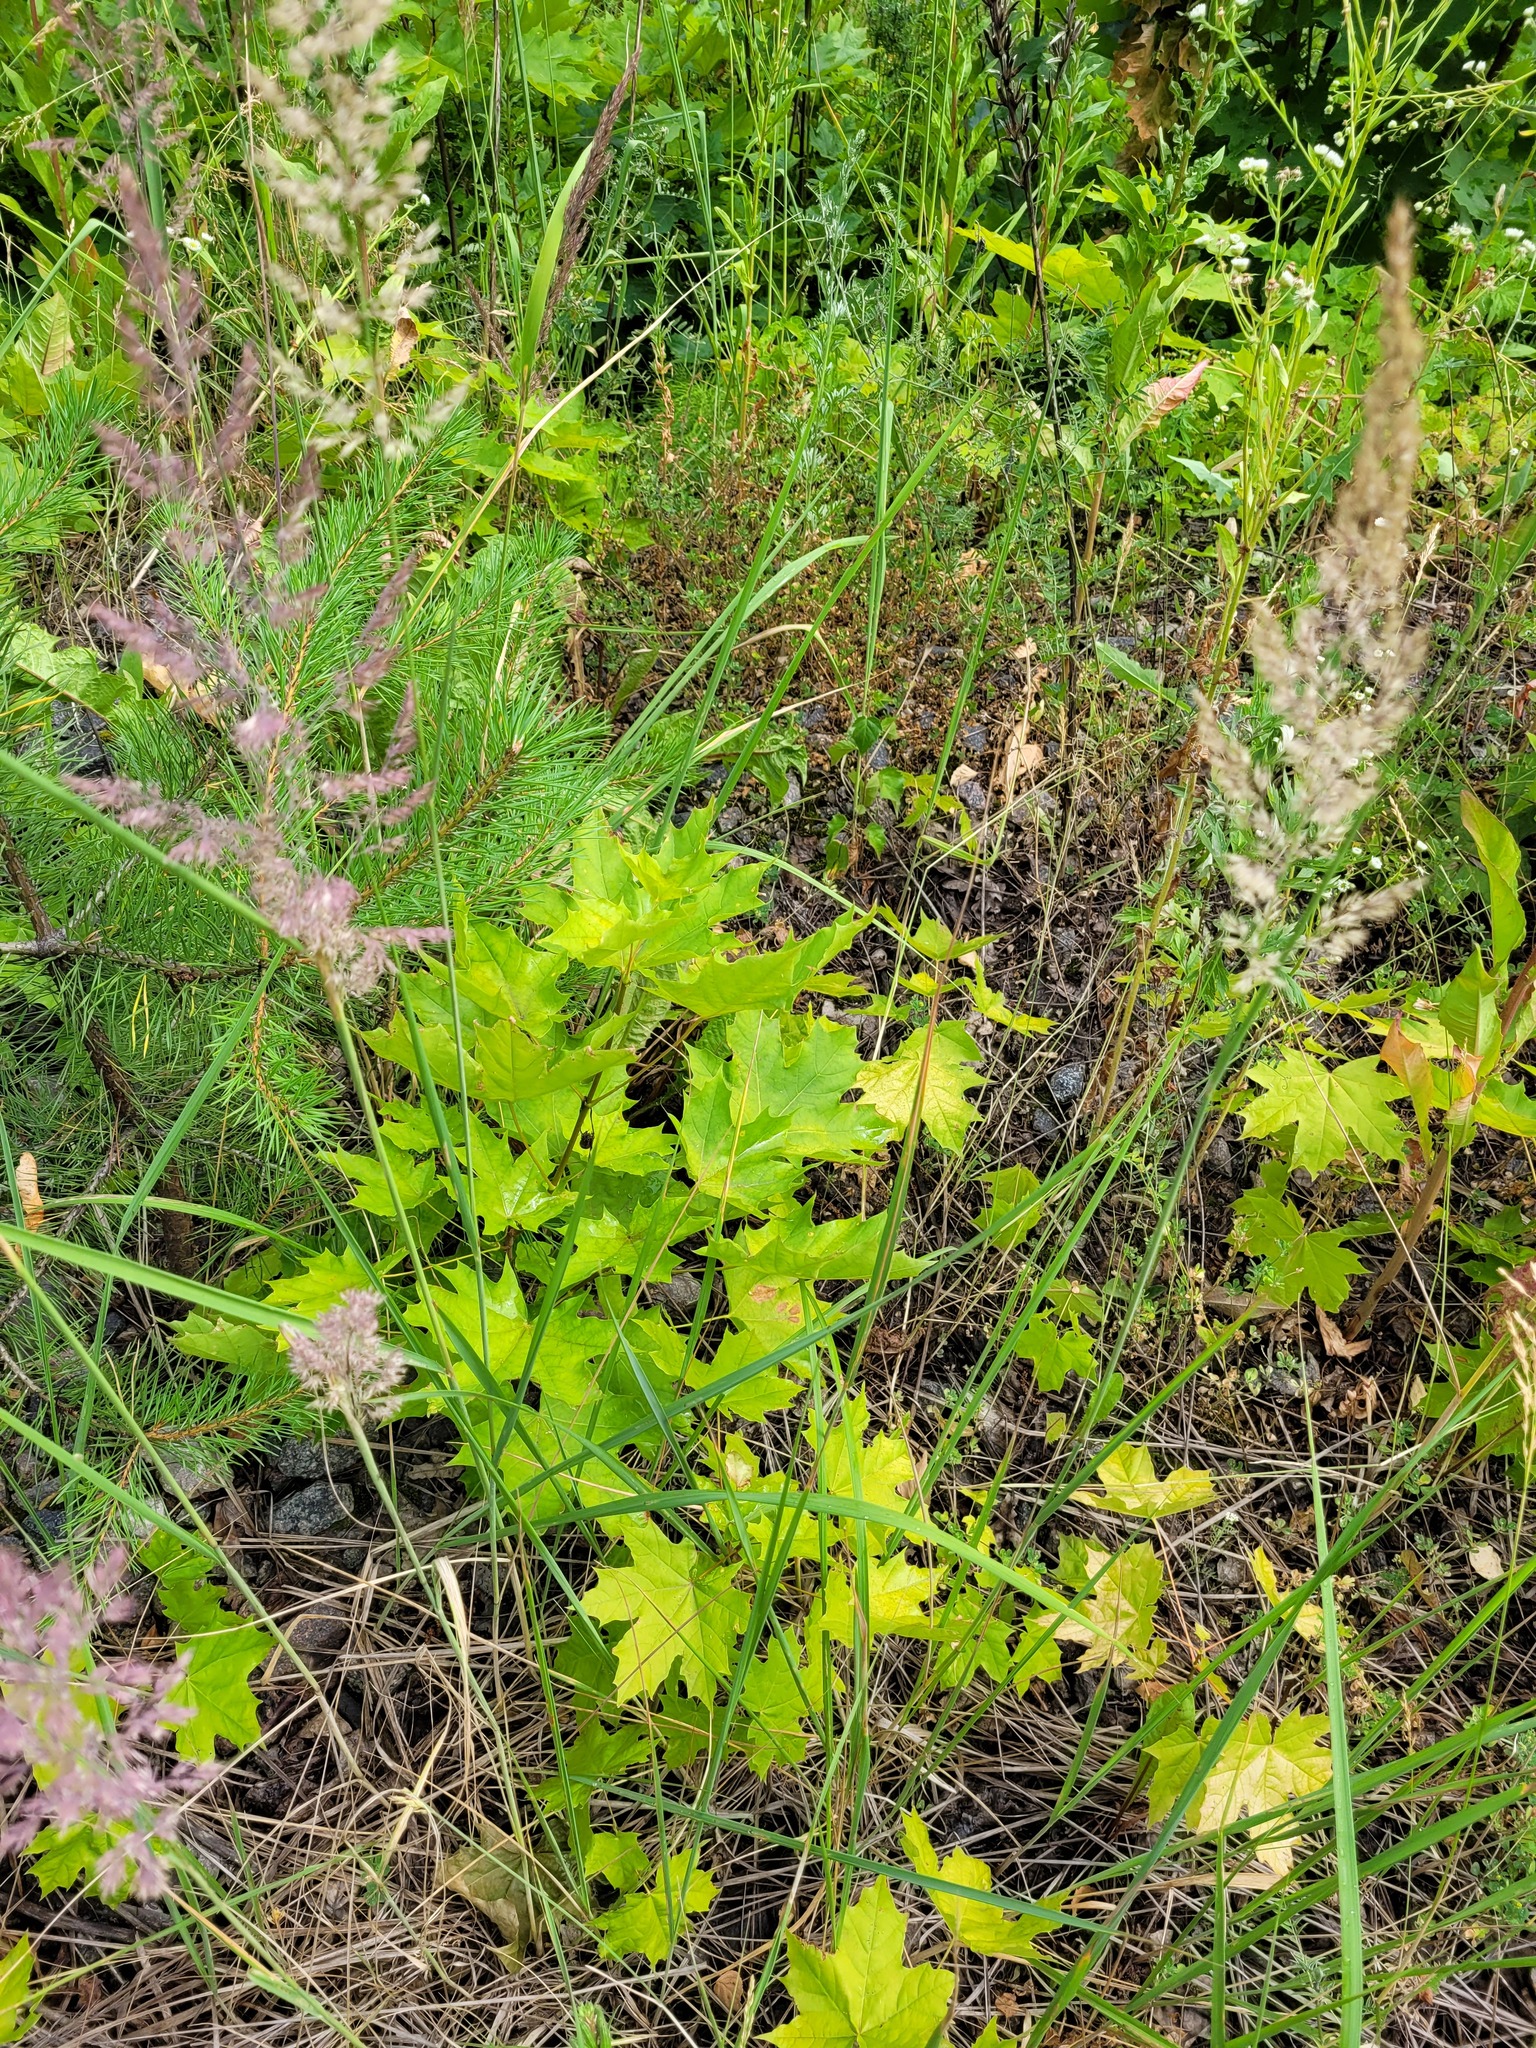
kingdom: Plantae
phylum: Tracheophyta
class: Magnoliopsida
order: Sapindales
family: Sapindaceae
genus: Acer
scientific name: Acer platanoides
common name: Norway maple
